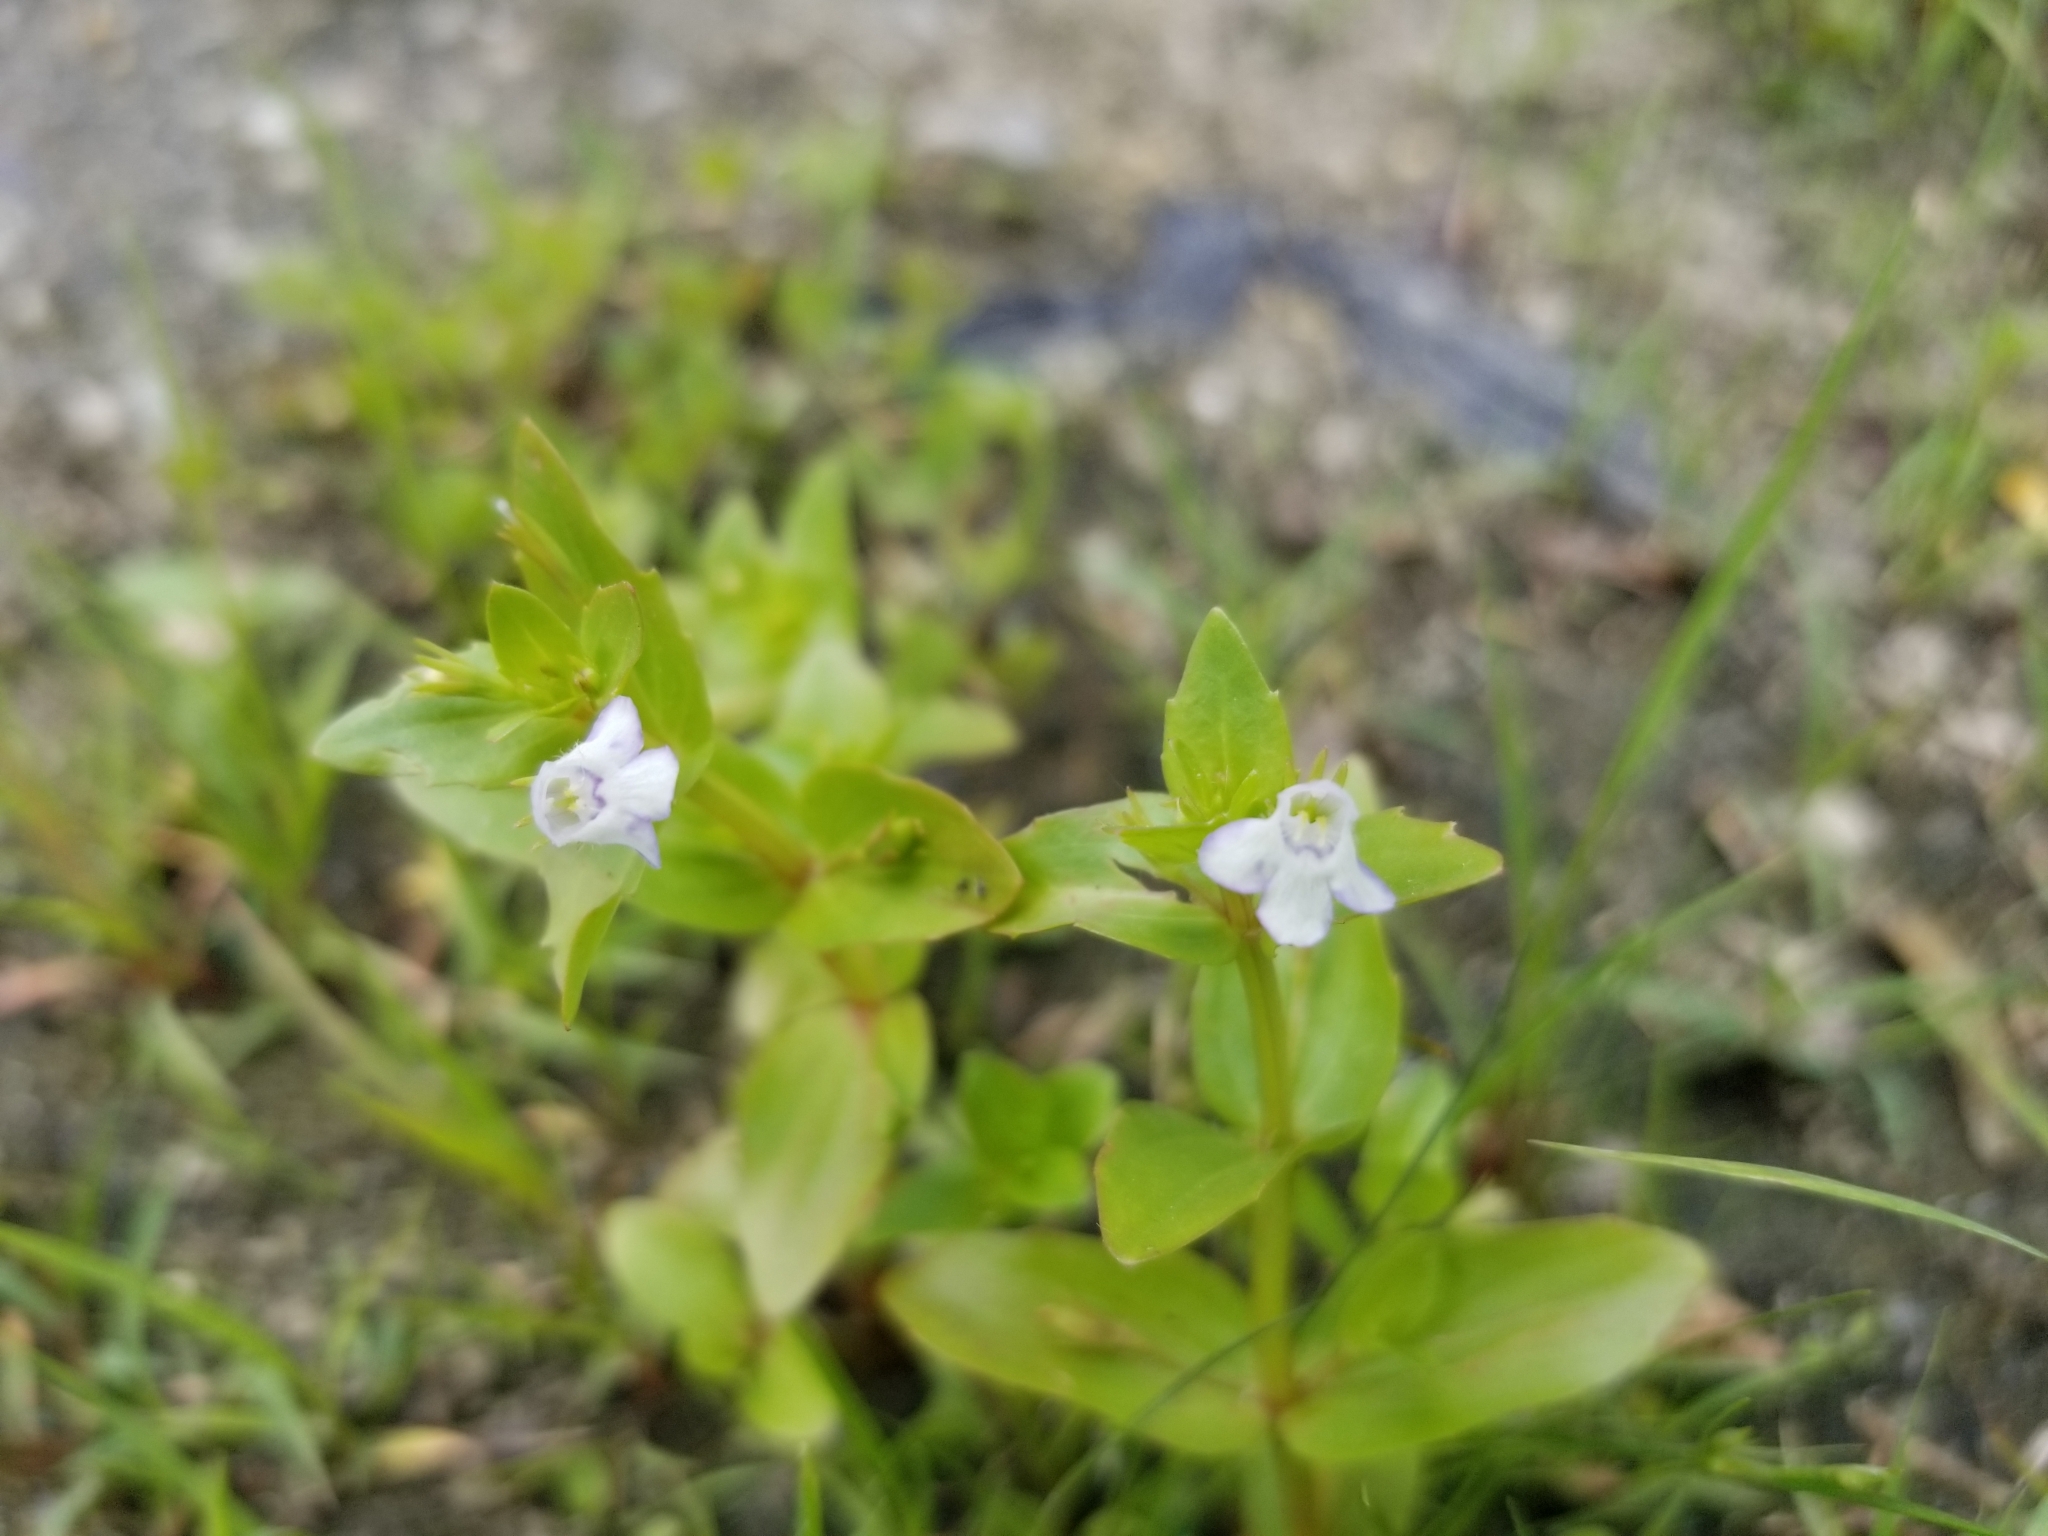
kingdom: Plantae
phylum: Tracheophyta
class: Magnoliopsida
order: Lamiales
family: Linderniaceae
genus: Lindernia
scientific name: Lindernia dubia
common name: Annual false pimpernel
